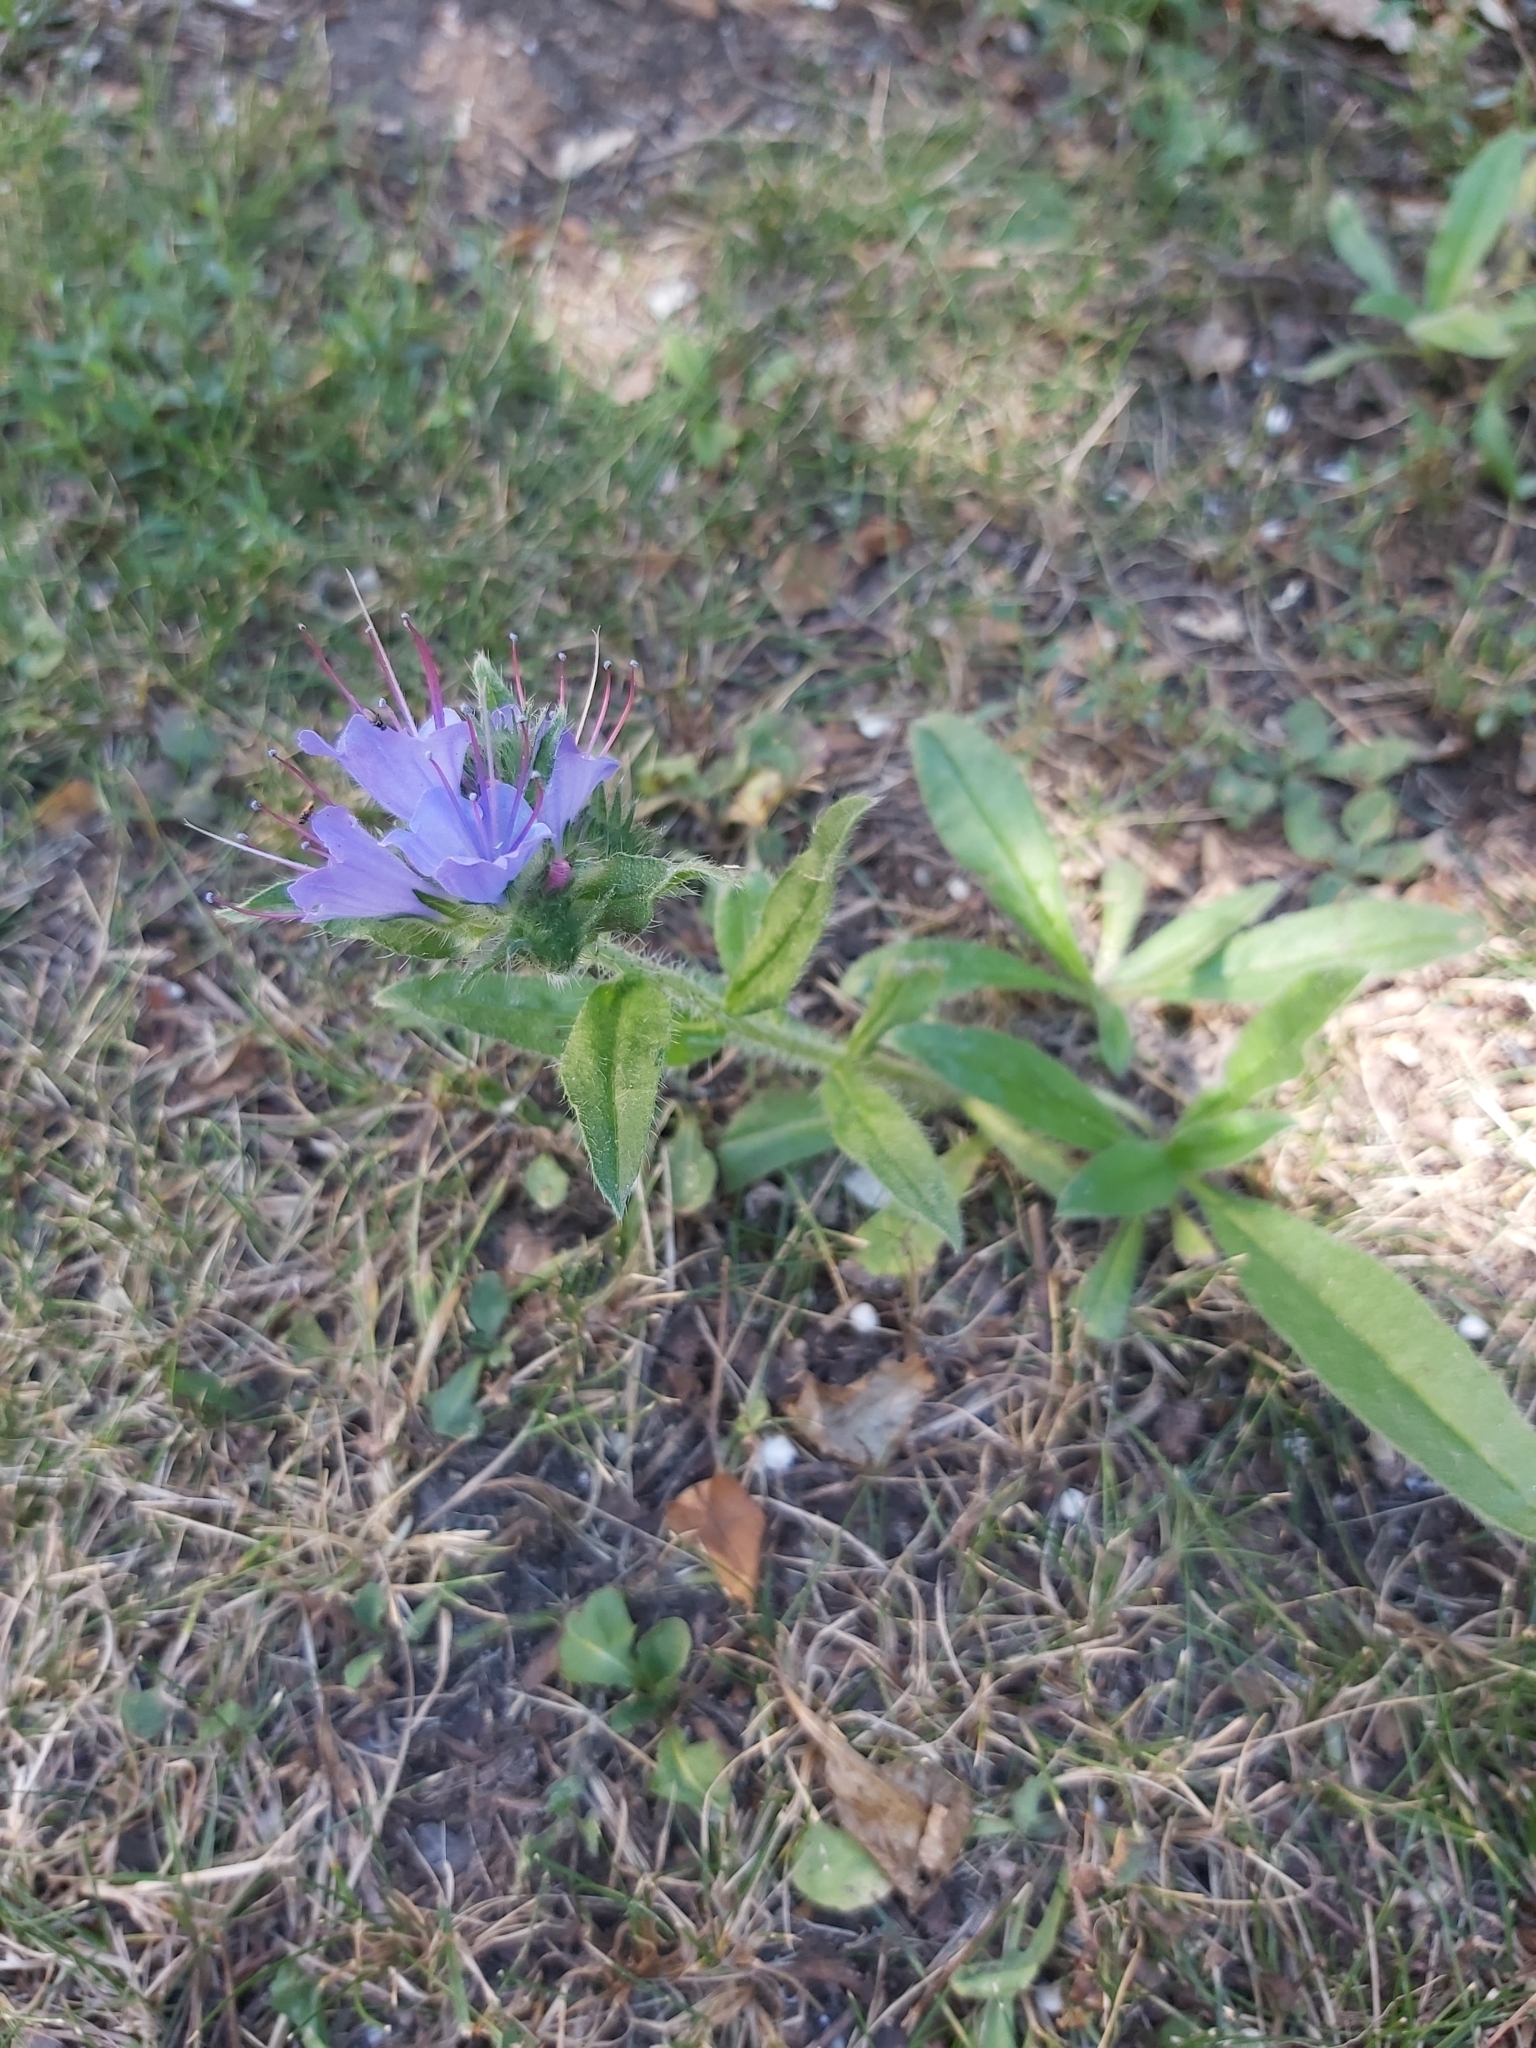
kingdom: Plantae
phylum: Tracheophyta
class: Magnoliopsida
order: Boraginales
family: Boraginaceae
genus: Echium
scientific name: Echium vulgare
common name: Common viper's bugloss
